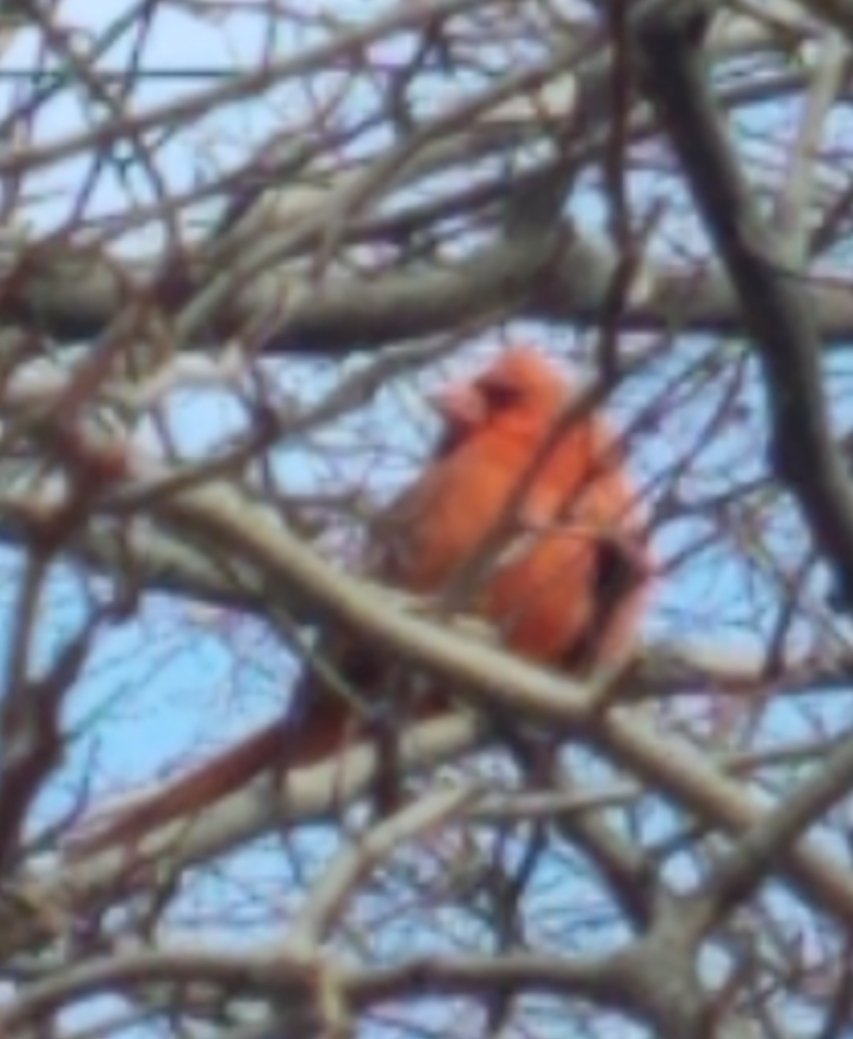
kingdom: Animalia
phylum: Chordata
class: Aves
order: Passeriformes
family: Cardinalidae
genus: Cardinalis
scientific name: Cardinalis cardinalis
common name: Northern cardinal
